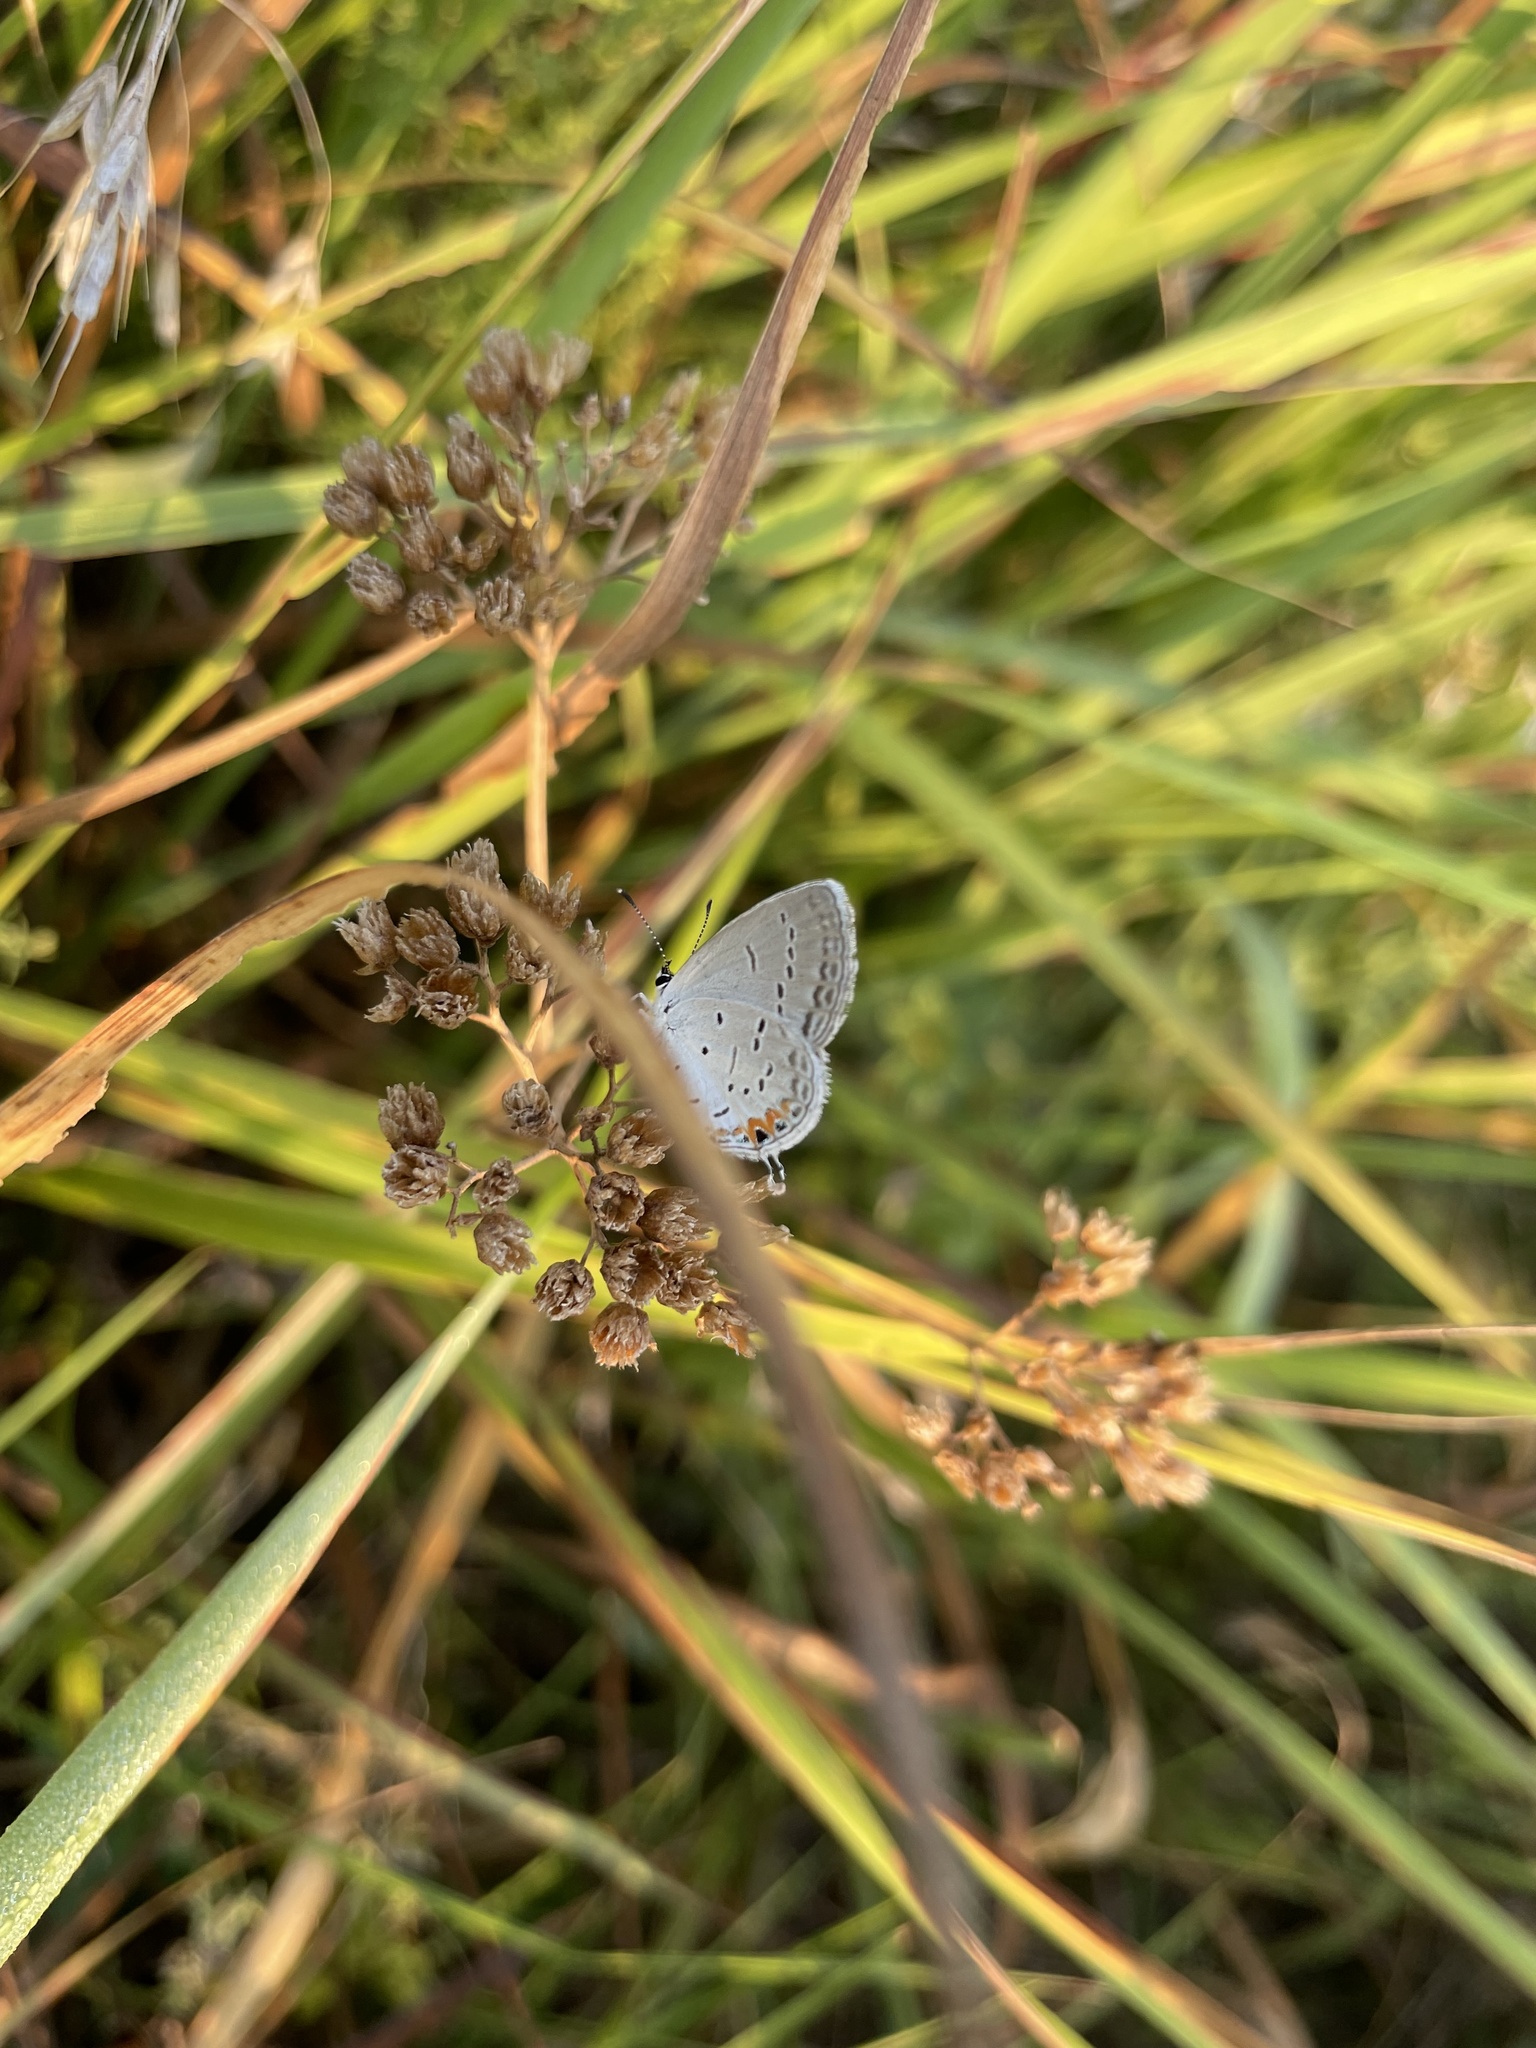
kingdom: Animalia
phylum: Arthropoda
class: Insecta
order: Lepidoptera
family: Lycaenidae
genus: Elkalyce
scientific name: Elkalyce comyntas
